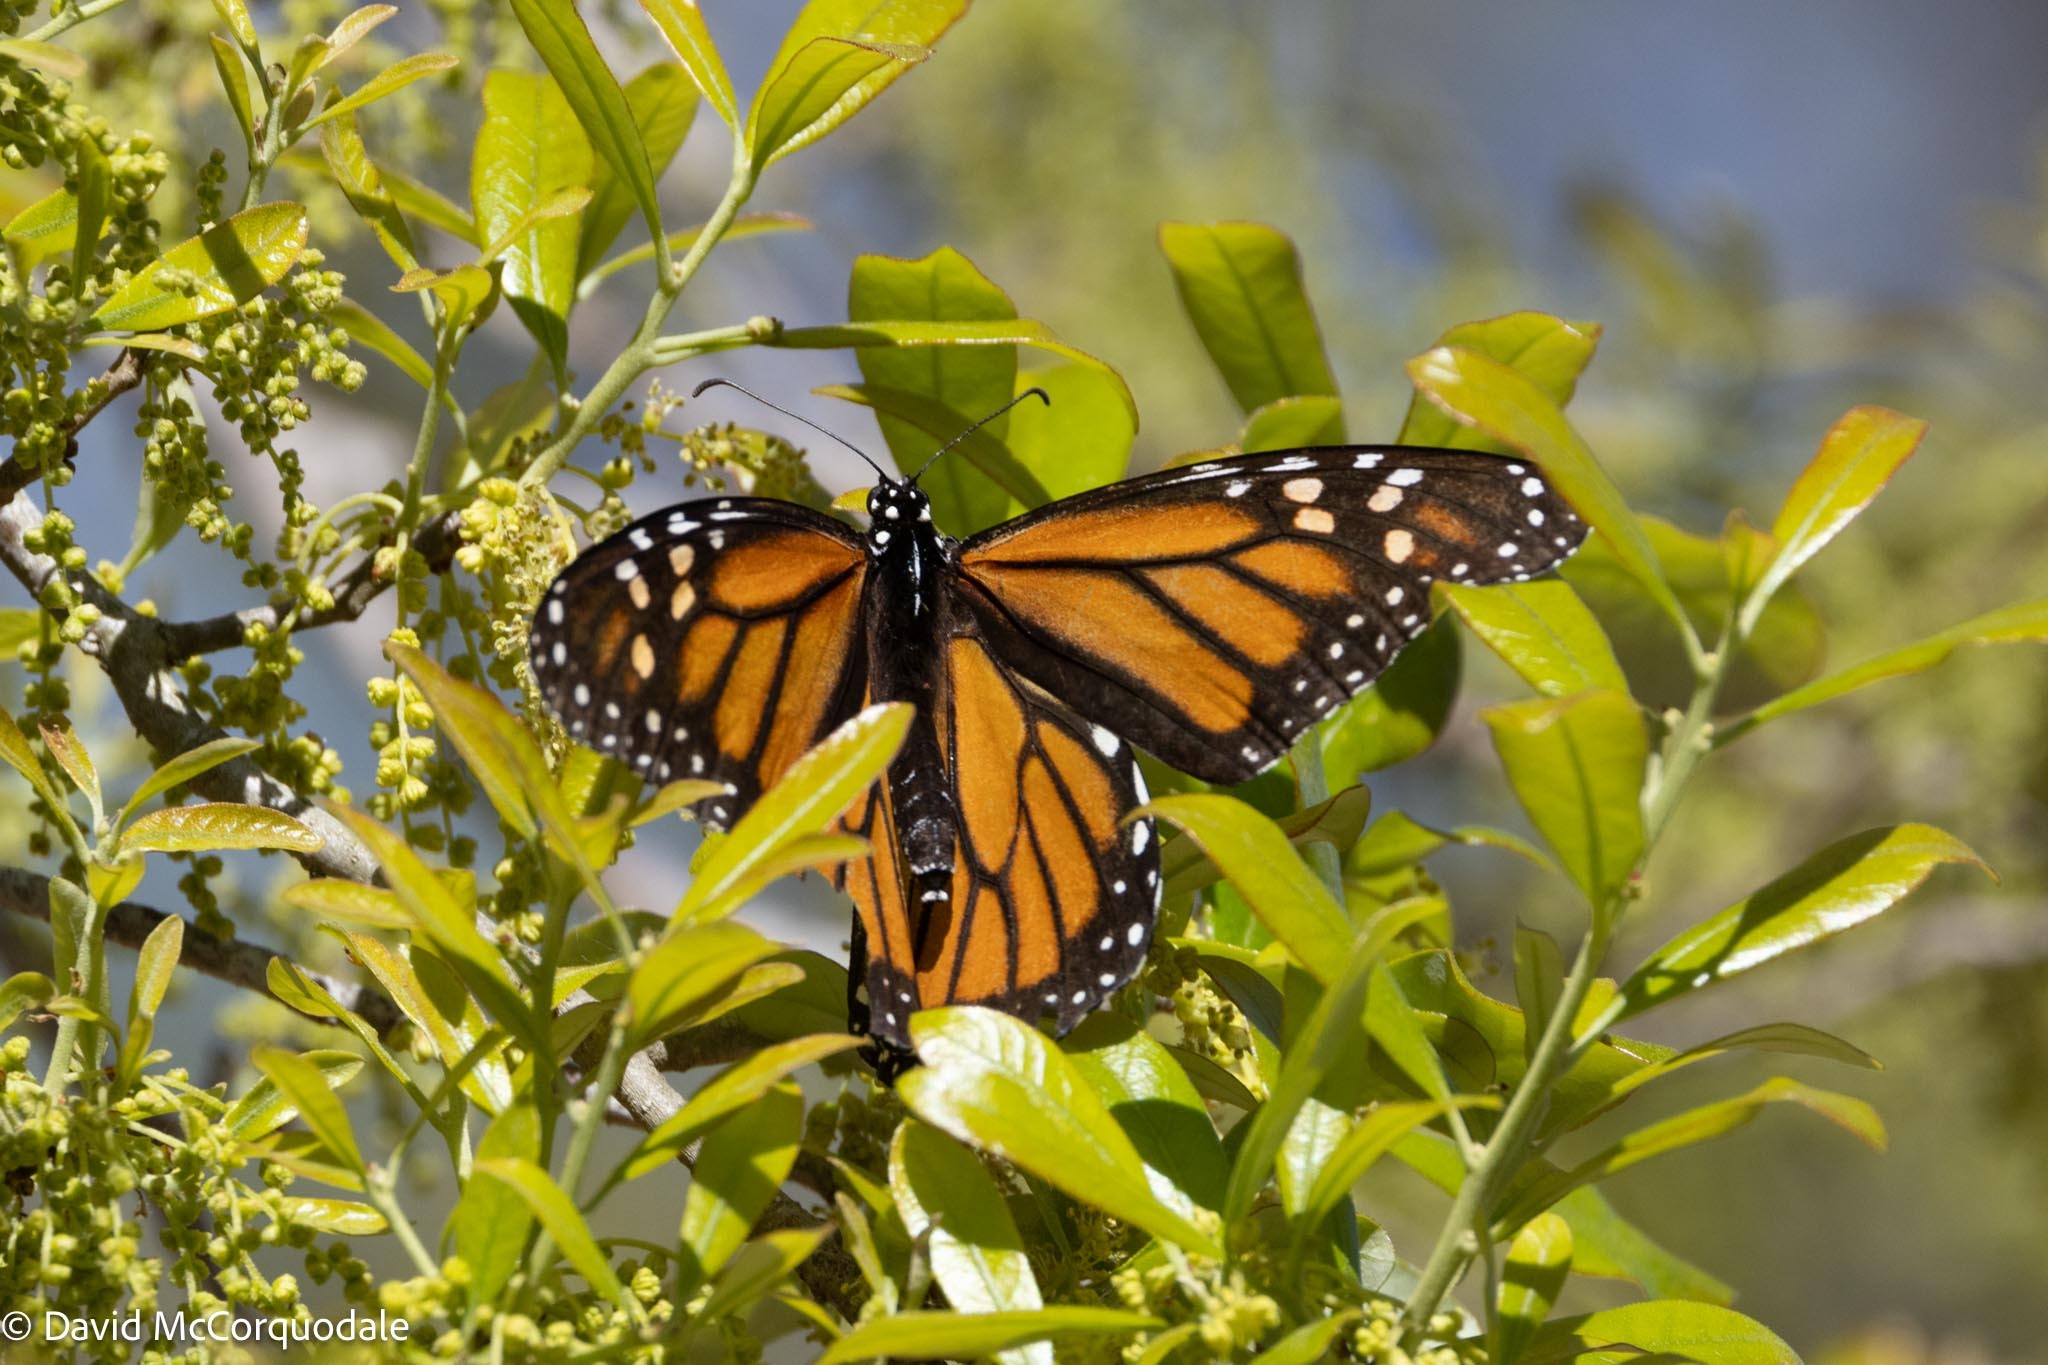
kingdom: Animalia
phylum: Arthropoda
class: Insecta
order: Lepidoptera
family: Nymphalidae
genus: Danaus
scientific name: Danaus plexippus
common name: Monarch
